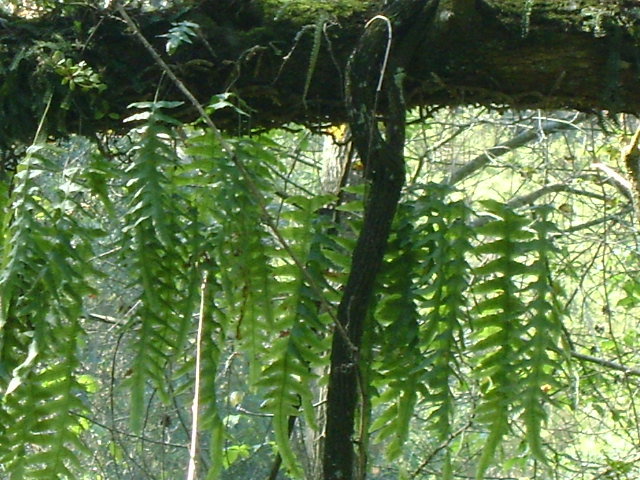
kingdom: Plantae
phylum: Tracheophyta
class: Polypodiopsida
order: Polypodiales
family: Polypodiaceae
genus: Polypodium
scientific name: Polypodium eatonii
